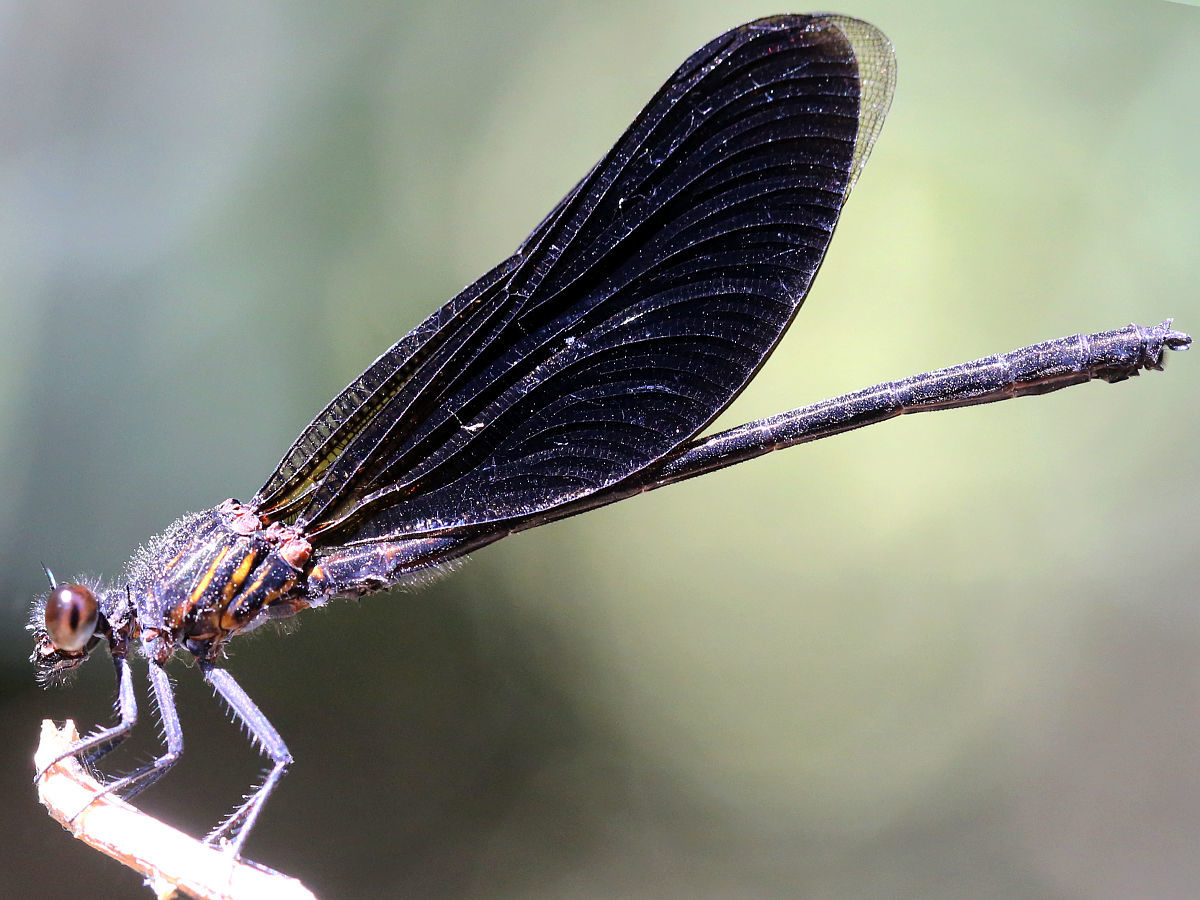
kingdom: Animalia
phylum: Arthropoda
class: Insecta
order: Odonata
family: Euphaeidae
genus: Euphaea
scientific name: Euphaea masoni
